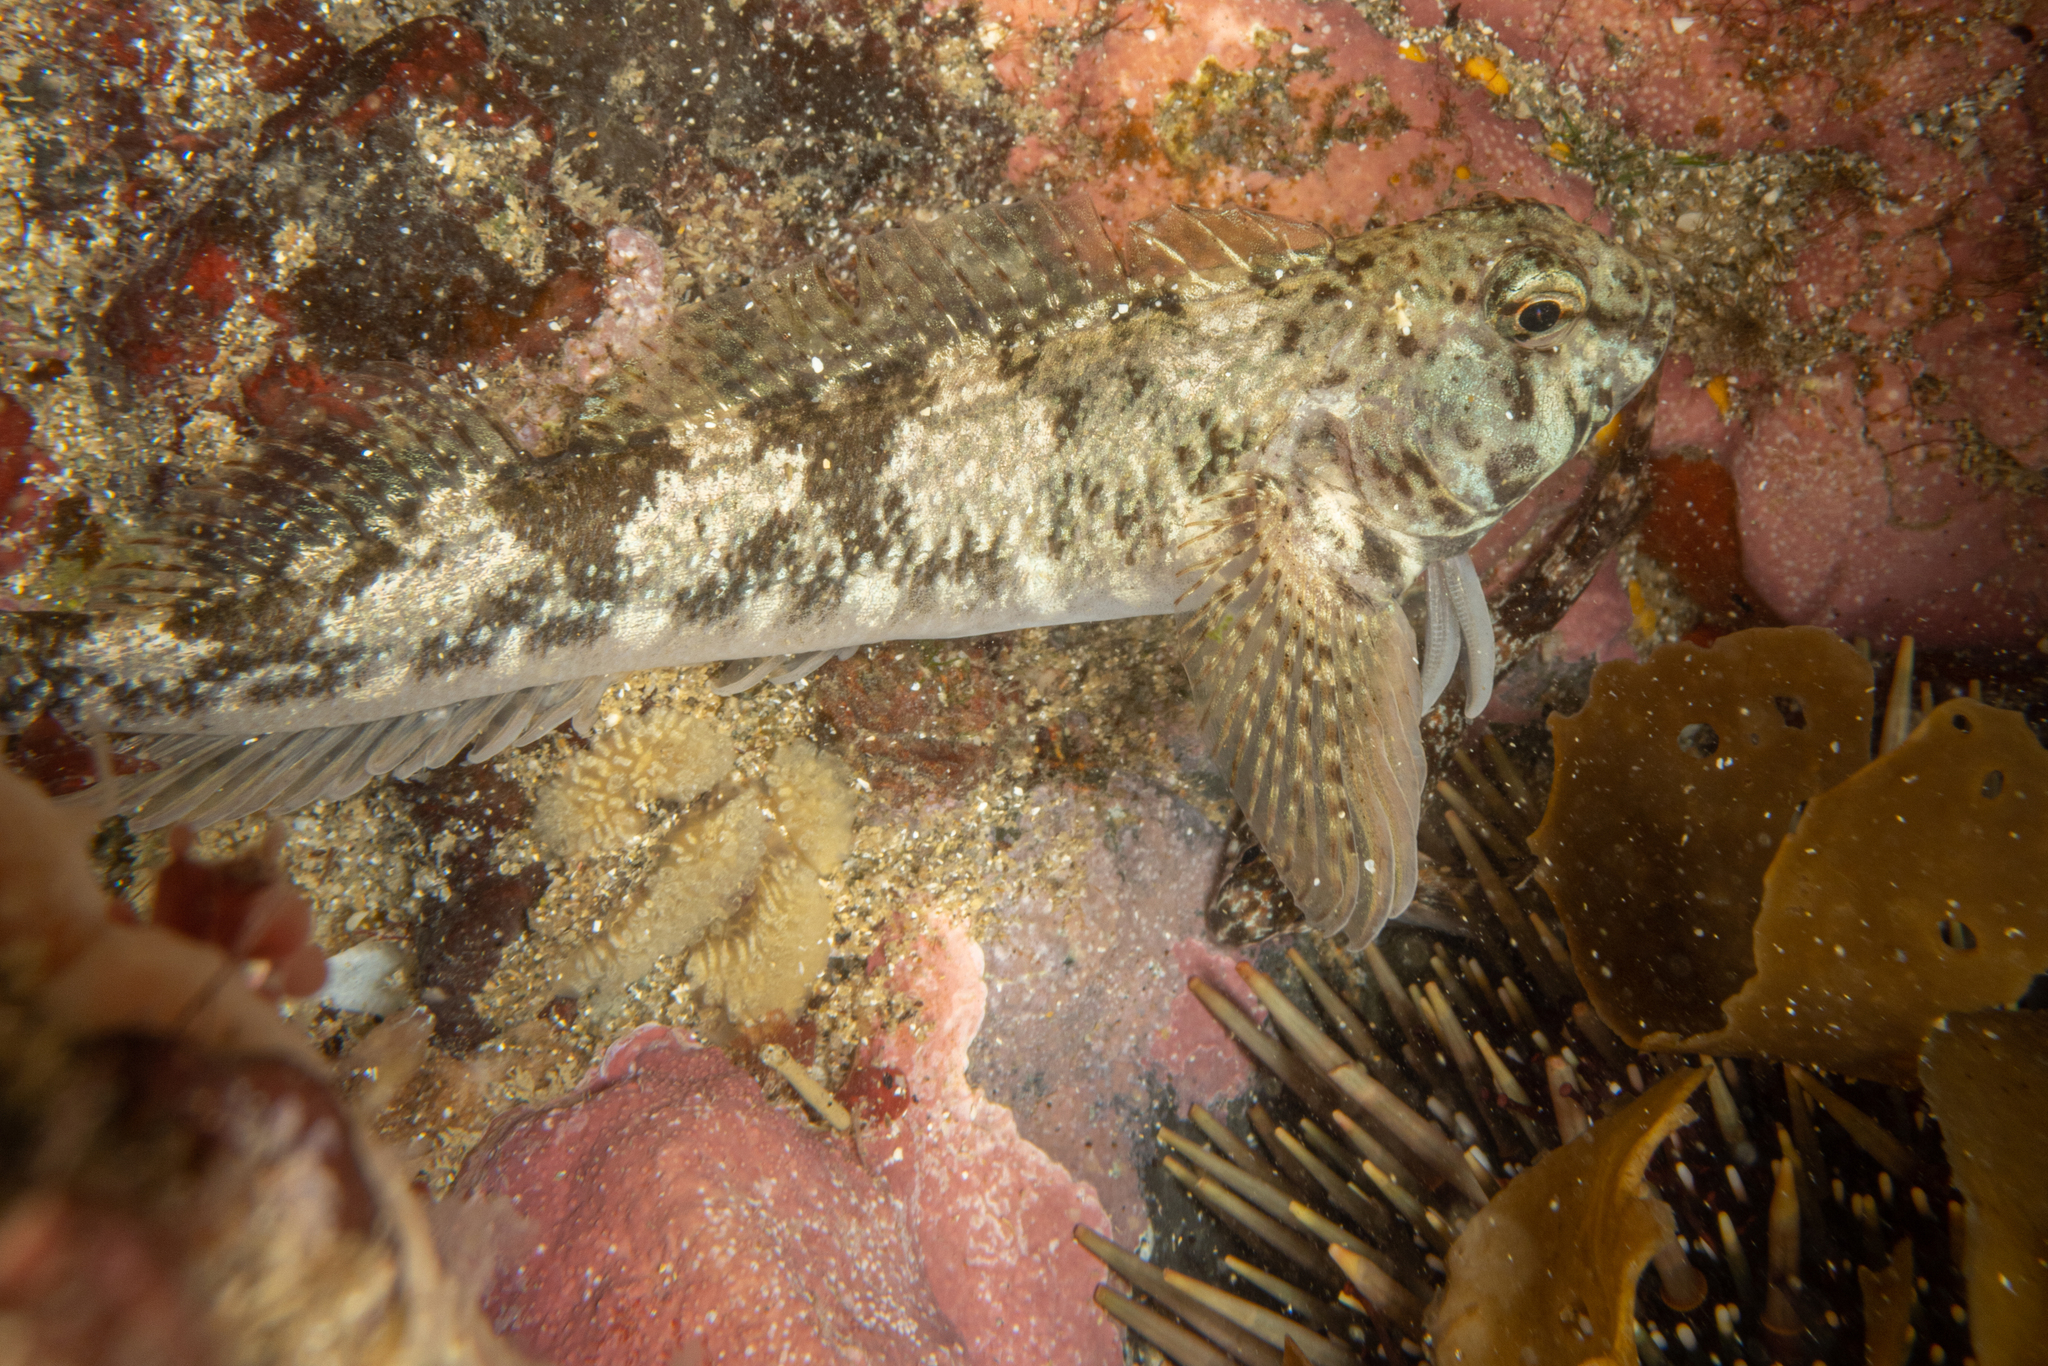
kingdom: Animalia
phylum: Chordata
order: Perciformes
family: Tripterygiidae
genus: Bellapiscis
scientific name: Bellapiscis medius
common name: Twister
